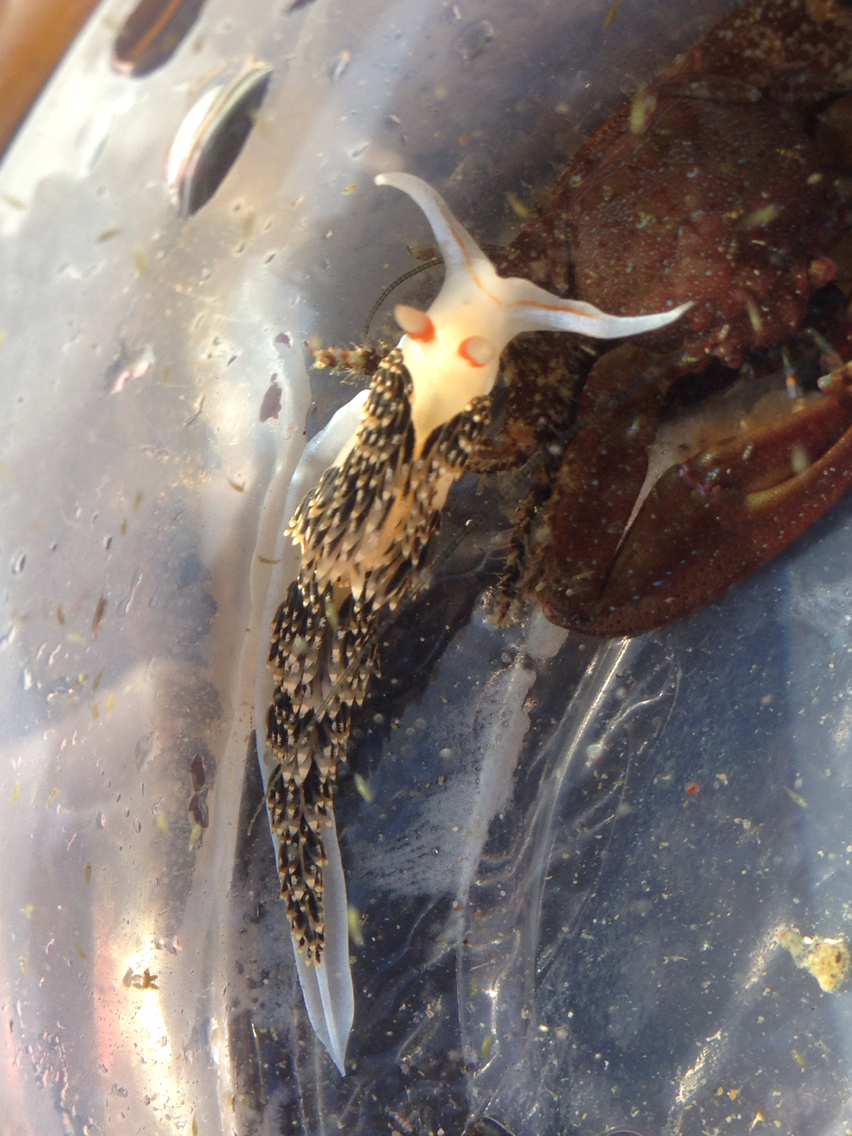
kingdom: Animalia
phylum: Mollusca
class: Gastropoda
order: Nudibranchia
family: Facelinidae
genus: Phidiana
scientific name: Phidiana hiltoni
